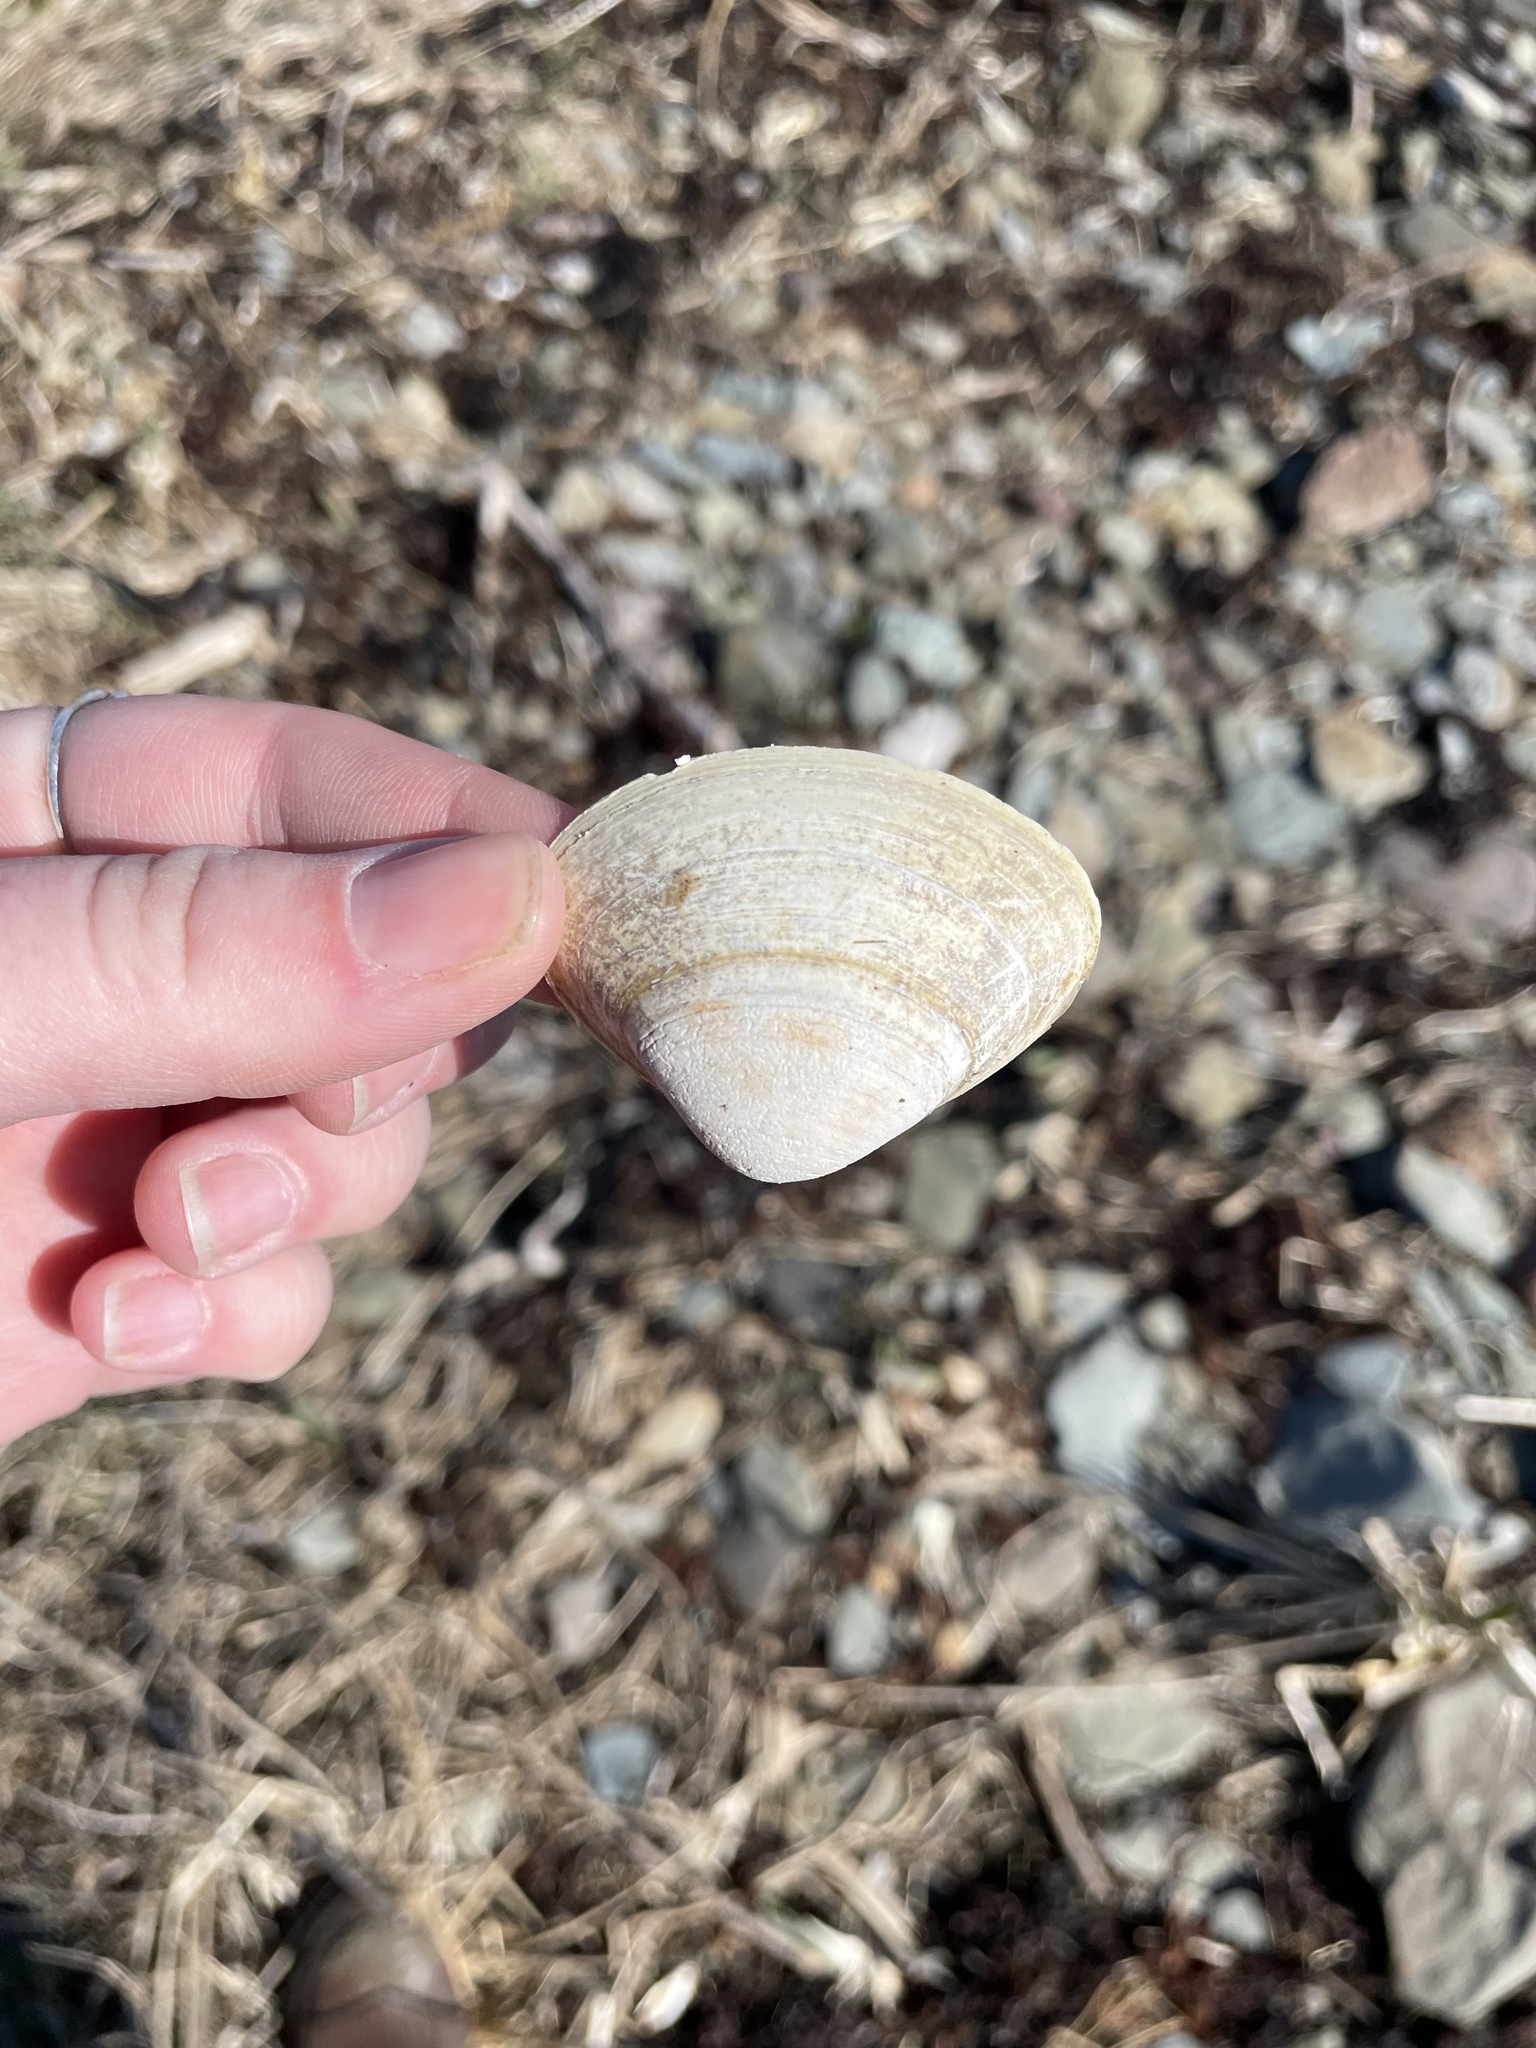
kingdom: Animalia
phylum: Mollusca
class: Bivalvia
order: Venerida
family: Mactridae
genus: Spisula
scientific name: Spisula solidissima
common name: Atlantic surf clam
